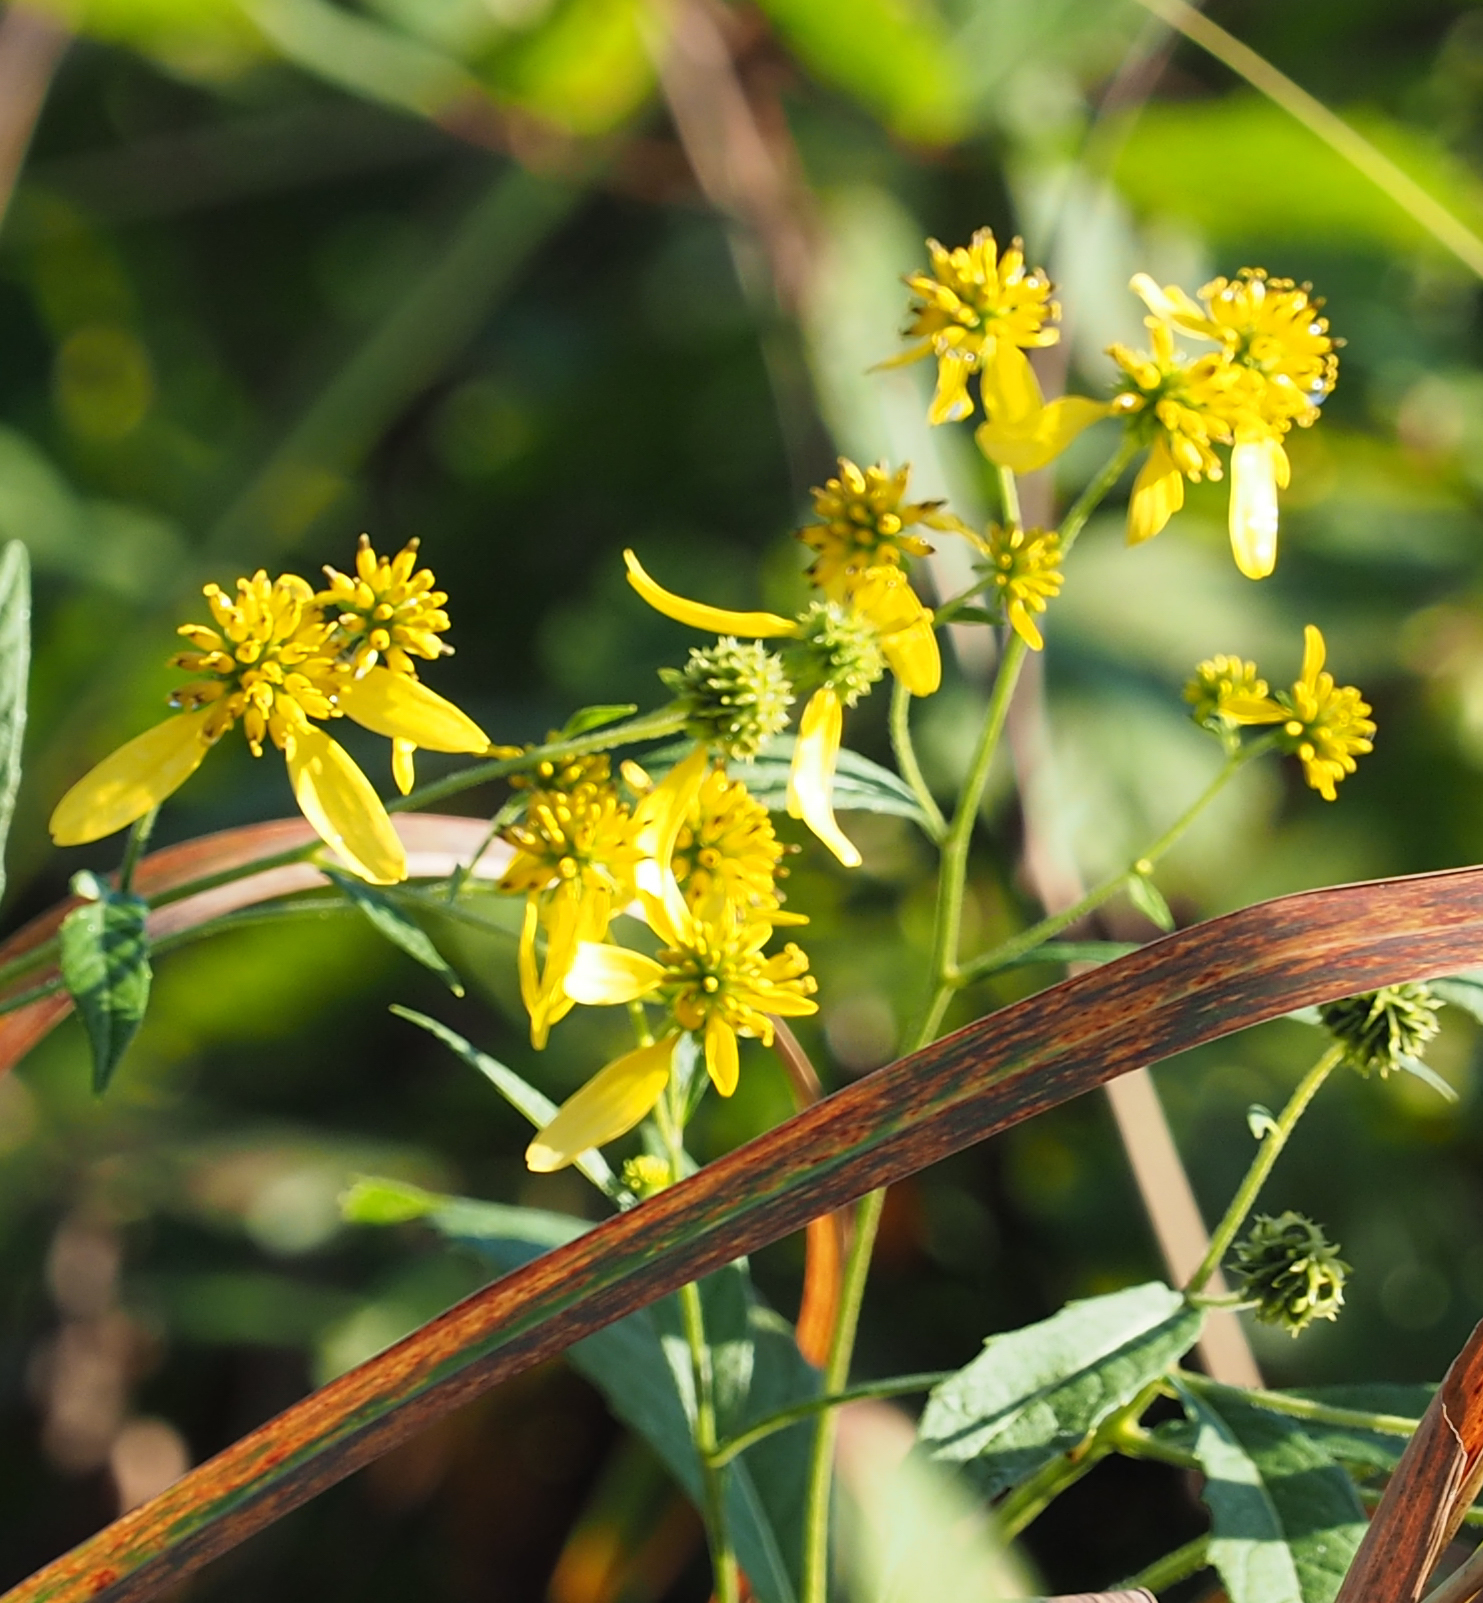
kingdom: Plantae
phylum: Tracheophyta
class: Magnoliopsida
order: Asterales
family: Asteraceae
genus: Verbesina
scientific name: Verbesina alternifolia
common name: Wingstem
